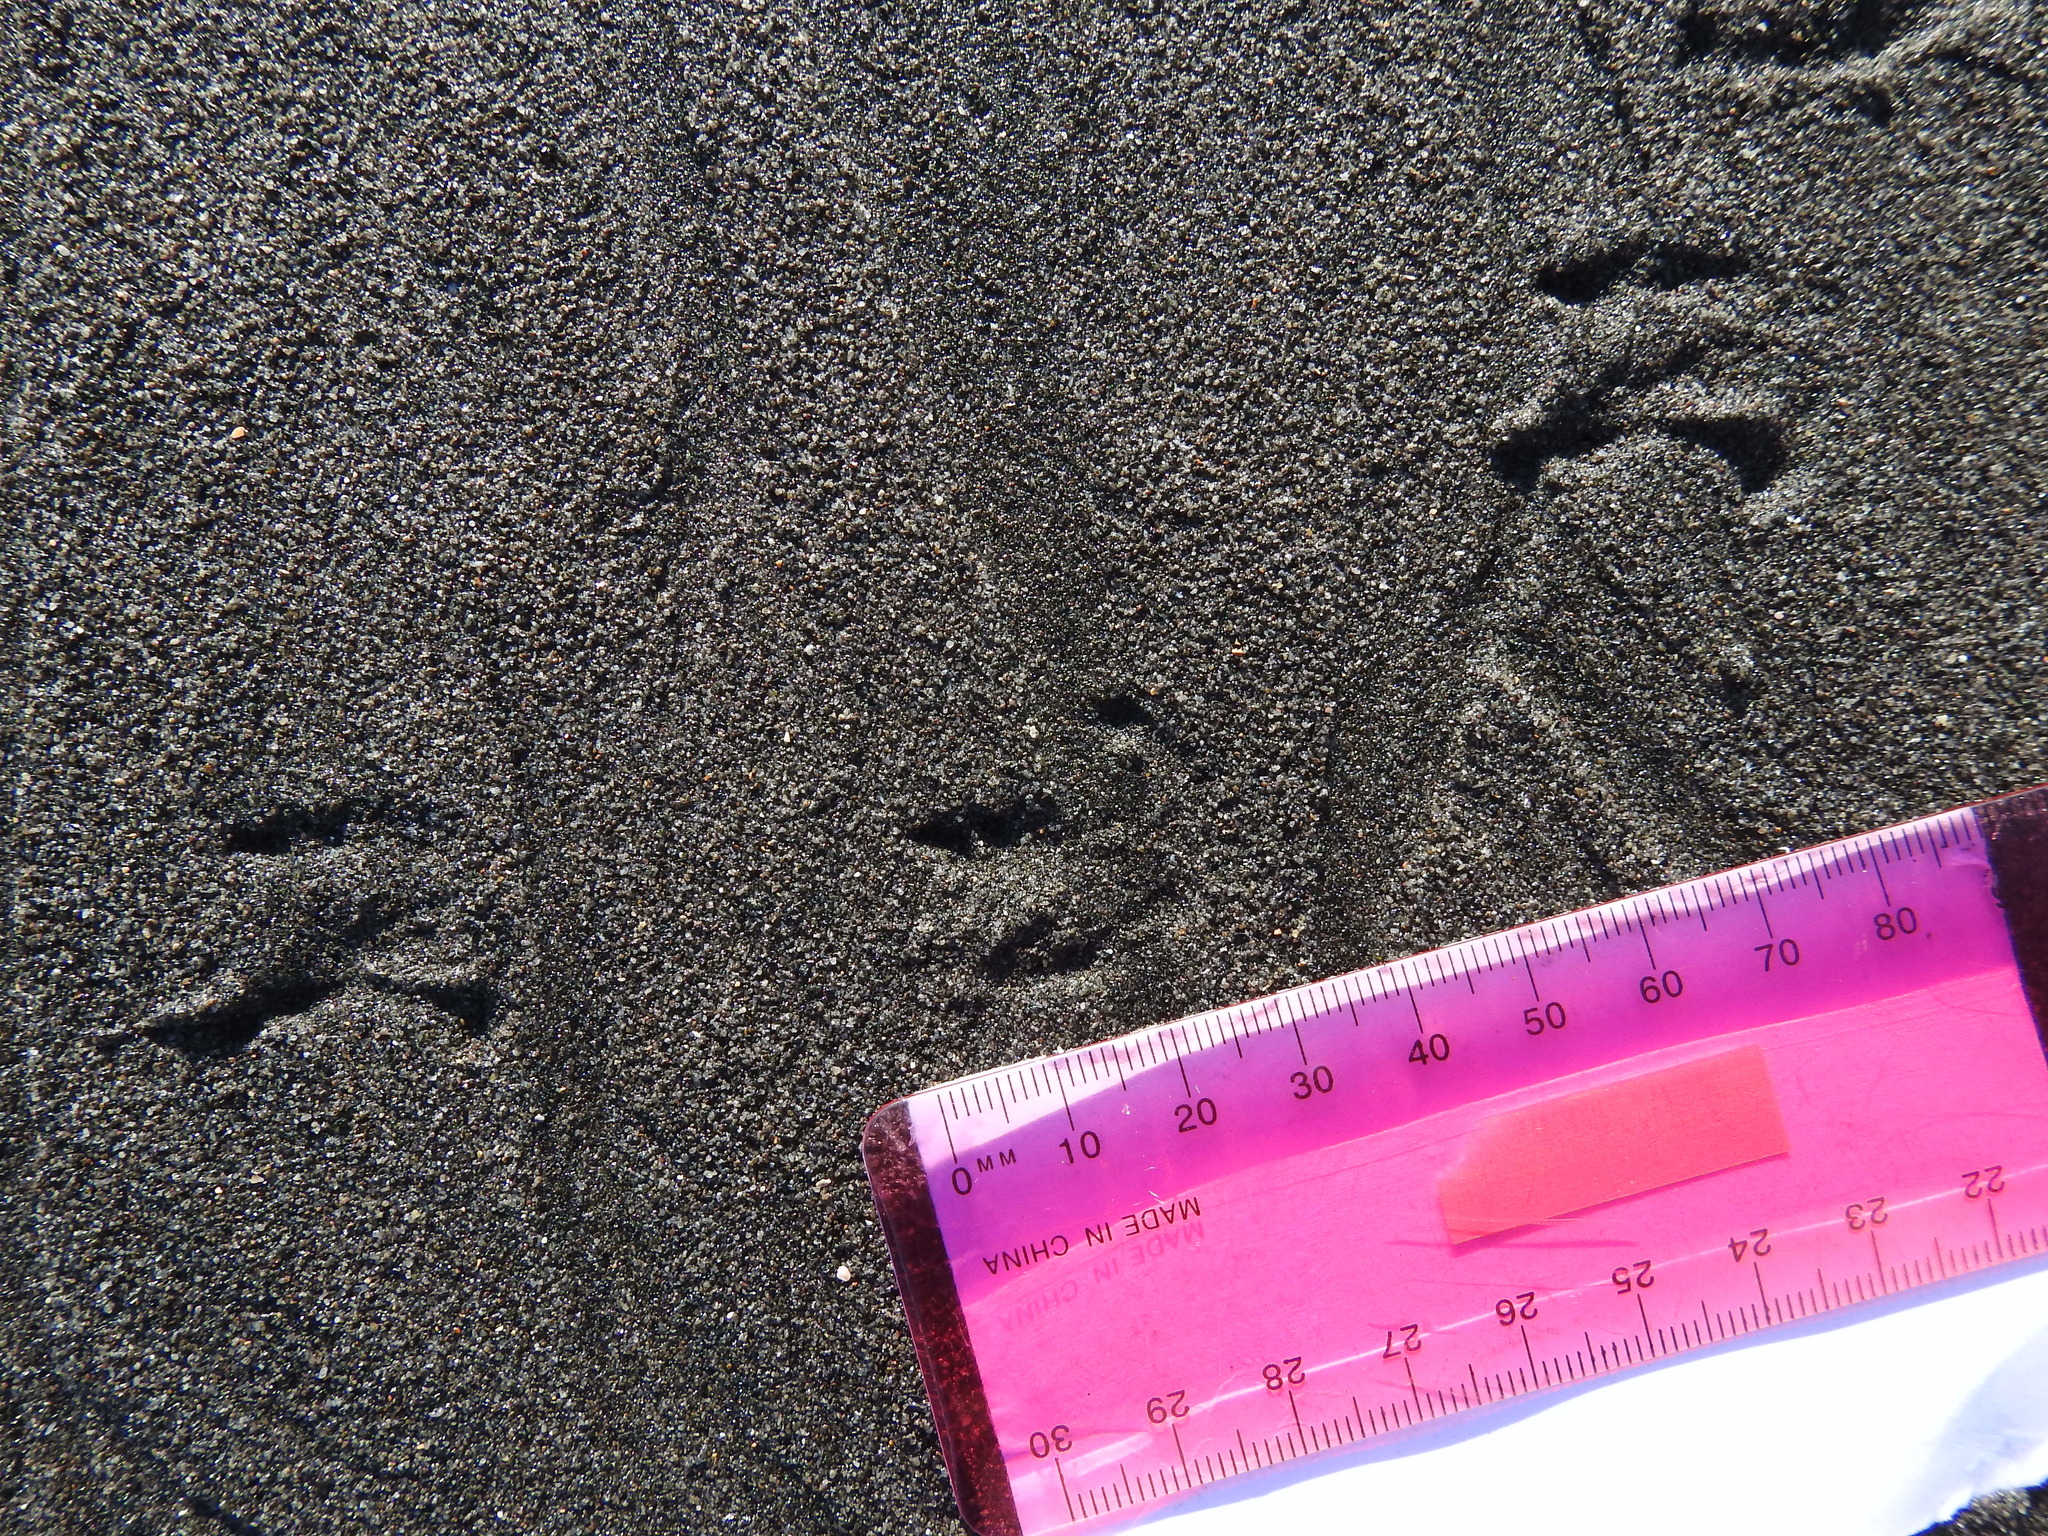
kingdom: Animalia
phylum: Chordata
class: Aves
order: Charadriiformes
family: Laridae
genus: Sterna
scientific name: Sterna striata
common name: White-fronted tern
